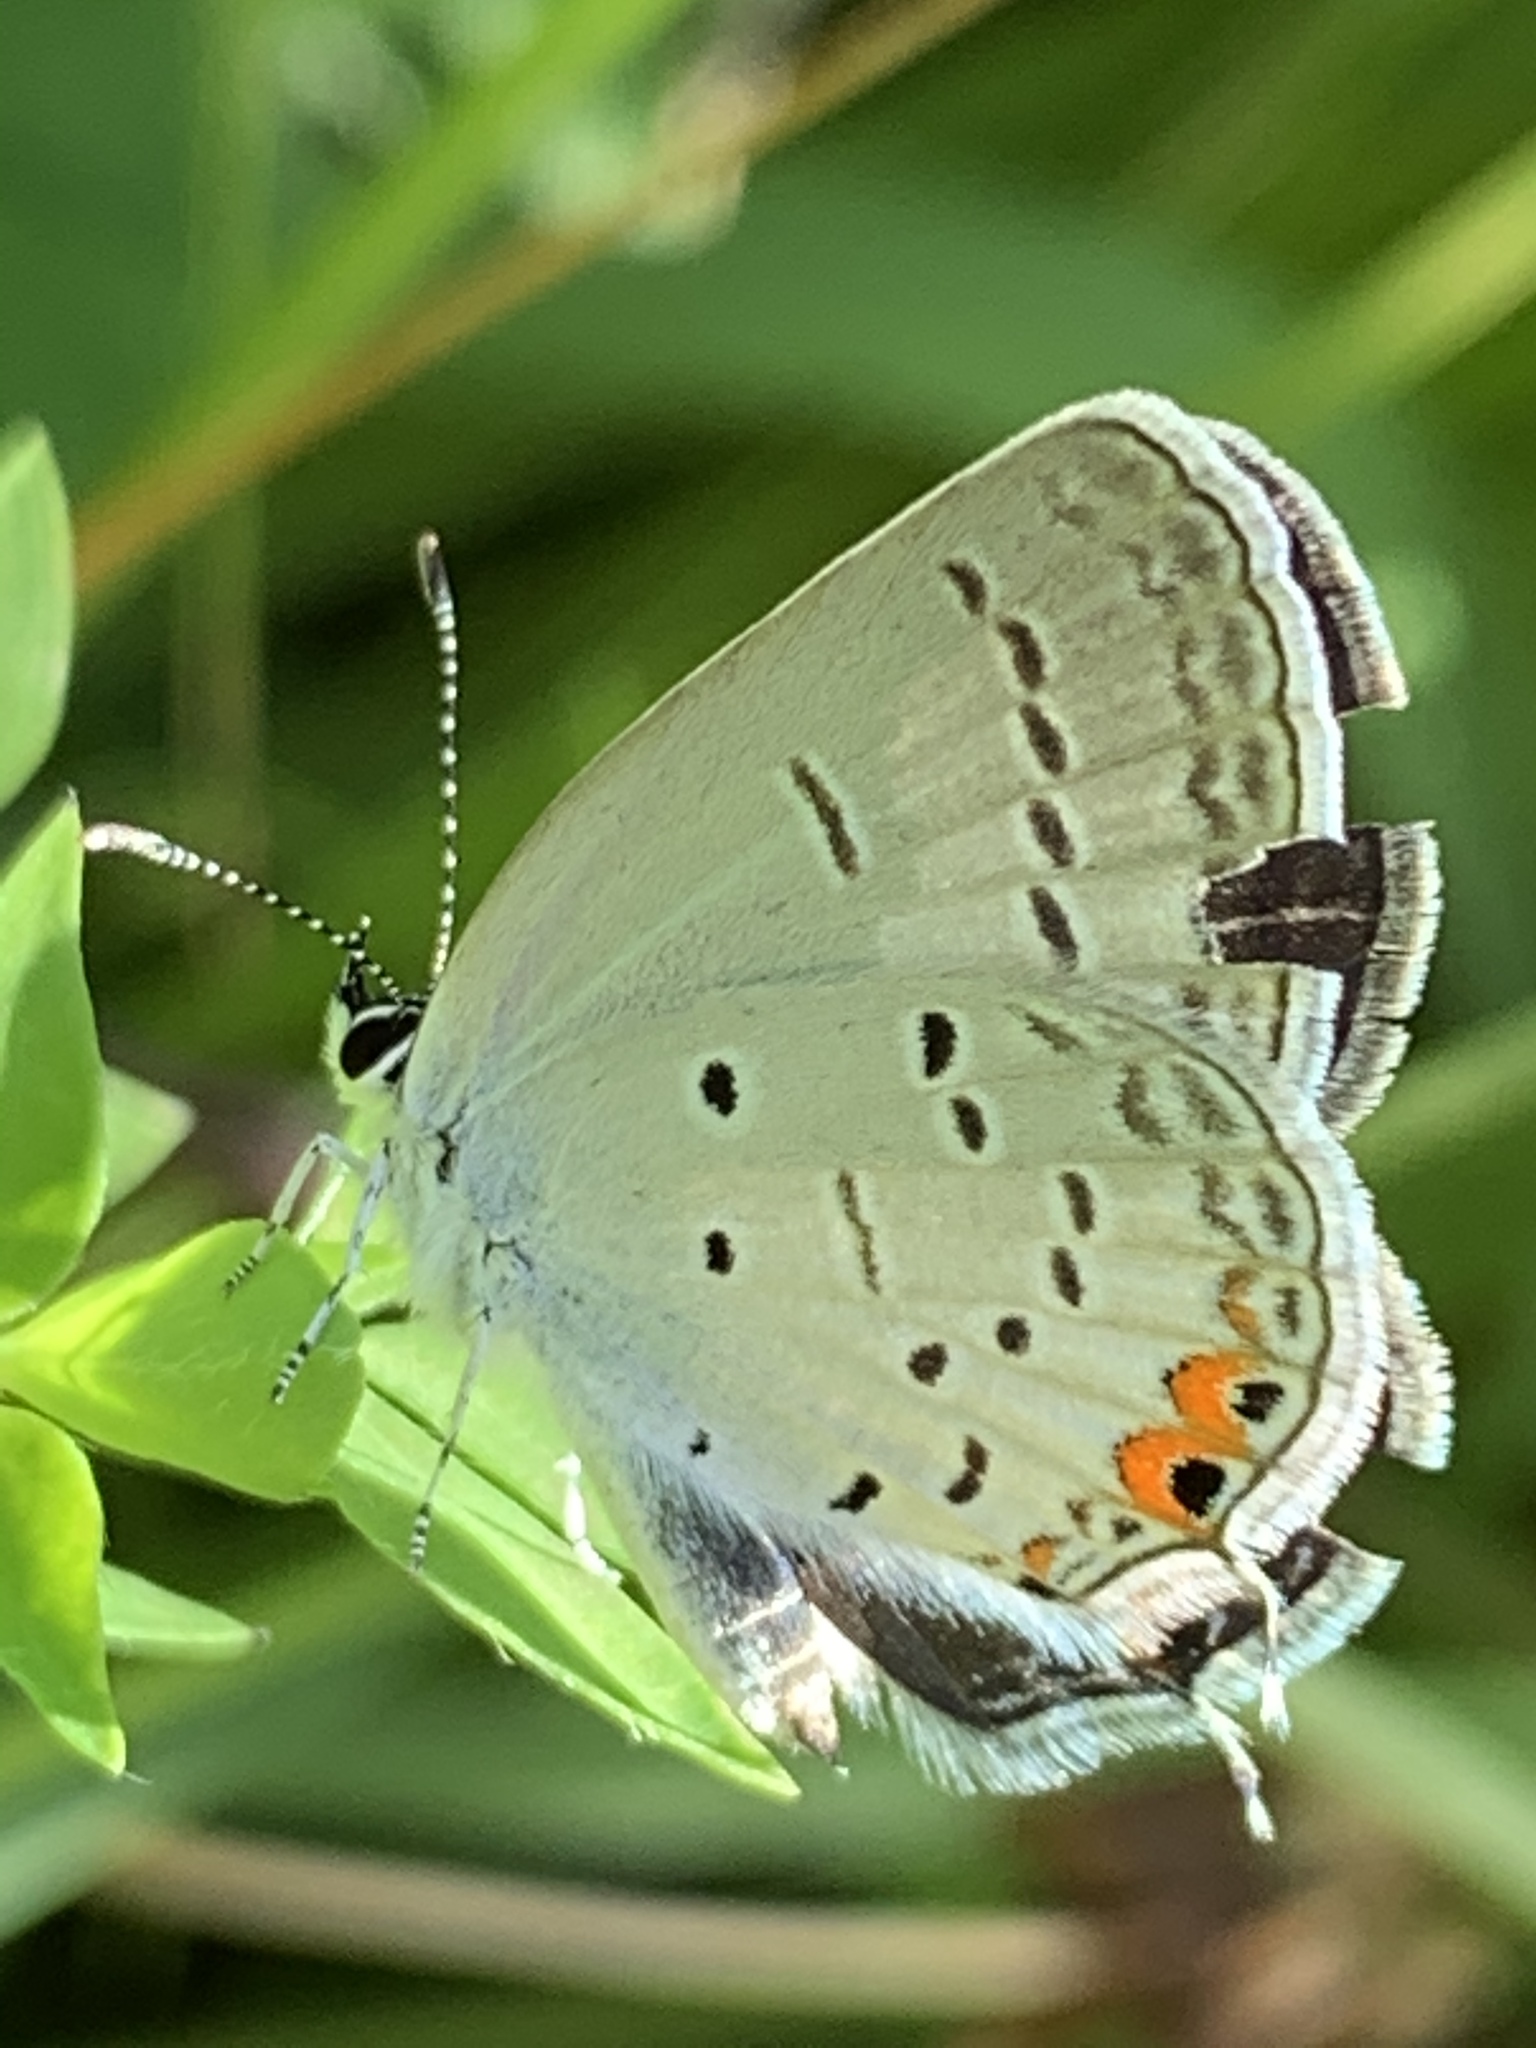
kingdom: Animalia
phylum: Arthropoda
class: Insecta
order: Lepidoptera
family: Lycaenidae
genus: Elkalyce
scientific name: Elkalyce comyntas
